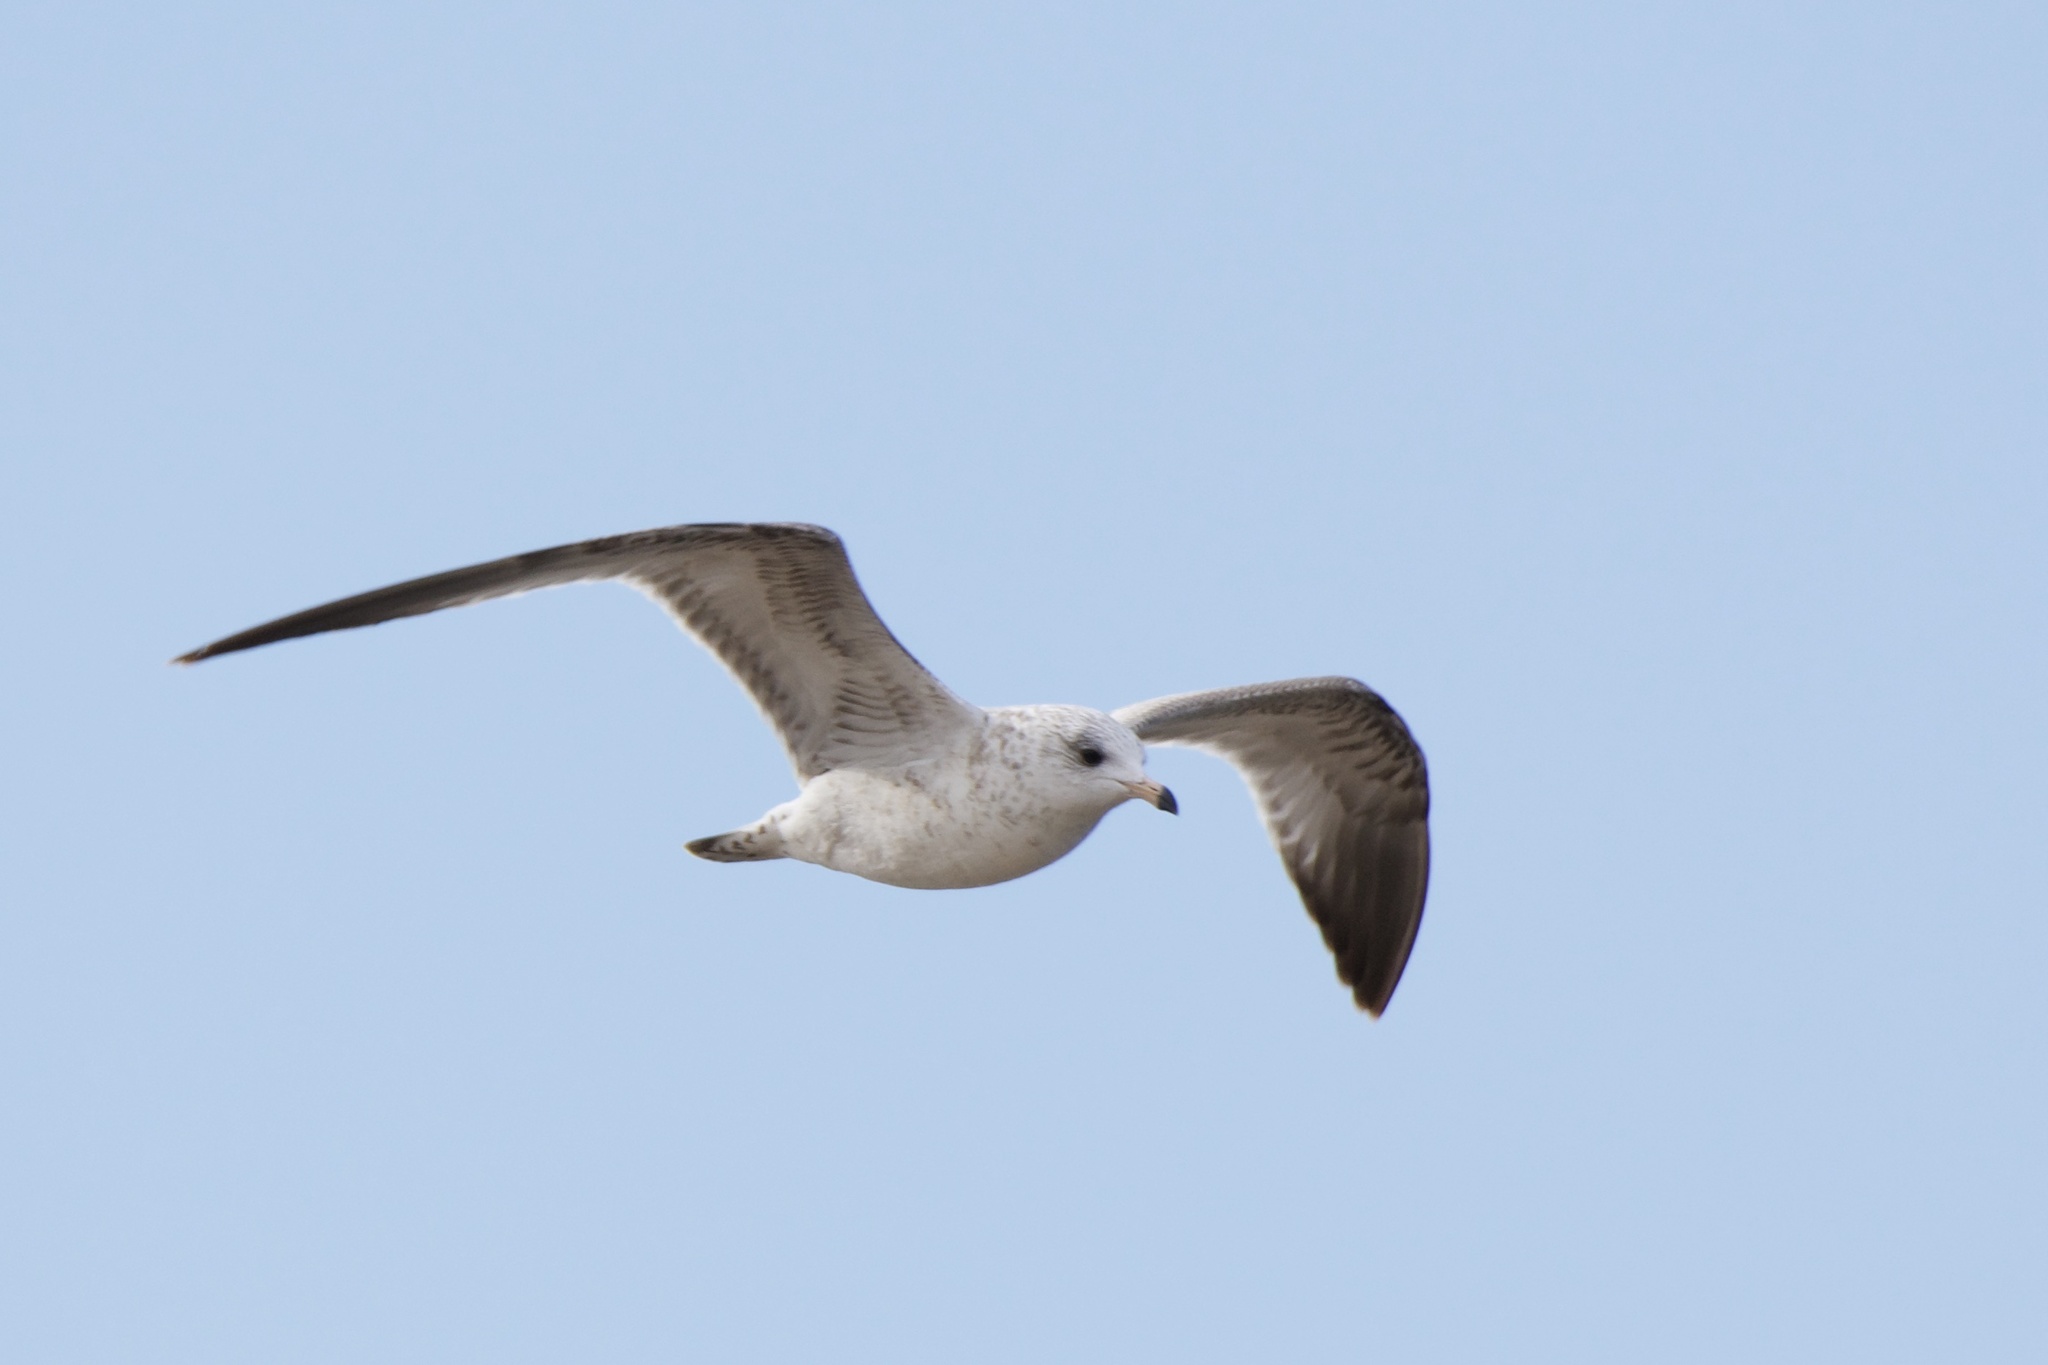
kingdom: Animalia
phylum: Chordata
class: Aves
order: Charadriiformes
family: Laridae
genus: Larus
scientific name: Larus delawarensis
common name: Ring-billed gull
